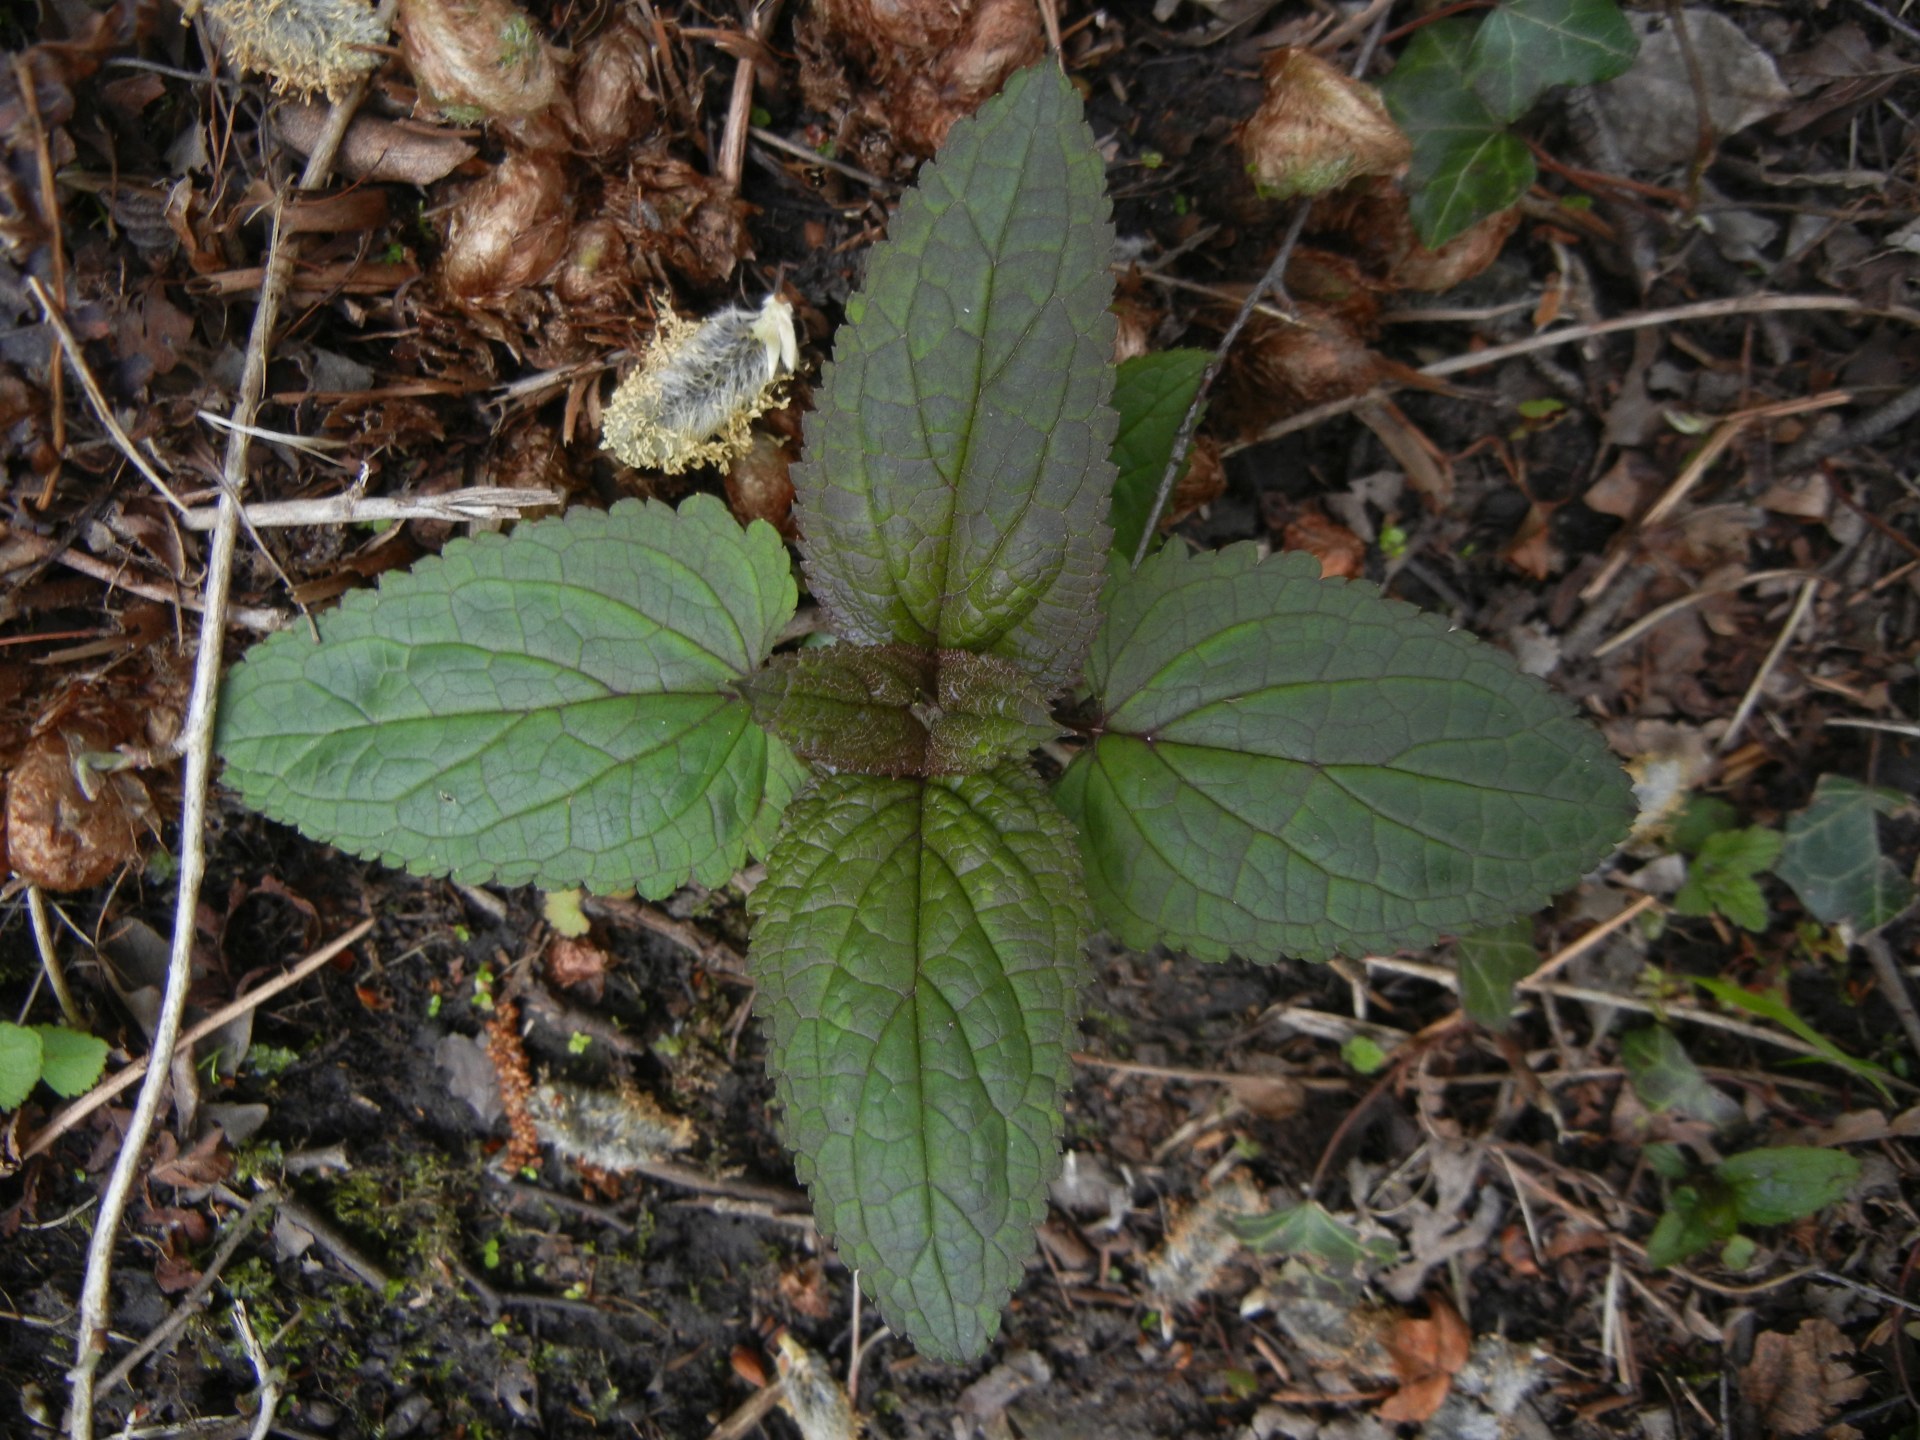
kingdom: Plantae
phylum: Tracheophyta
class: Magnoliopsida
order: Lamiales
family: Scrophulariaceae
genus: Scrophularia
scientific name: Scrophularia auriculata
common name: Water betony
